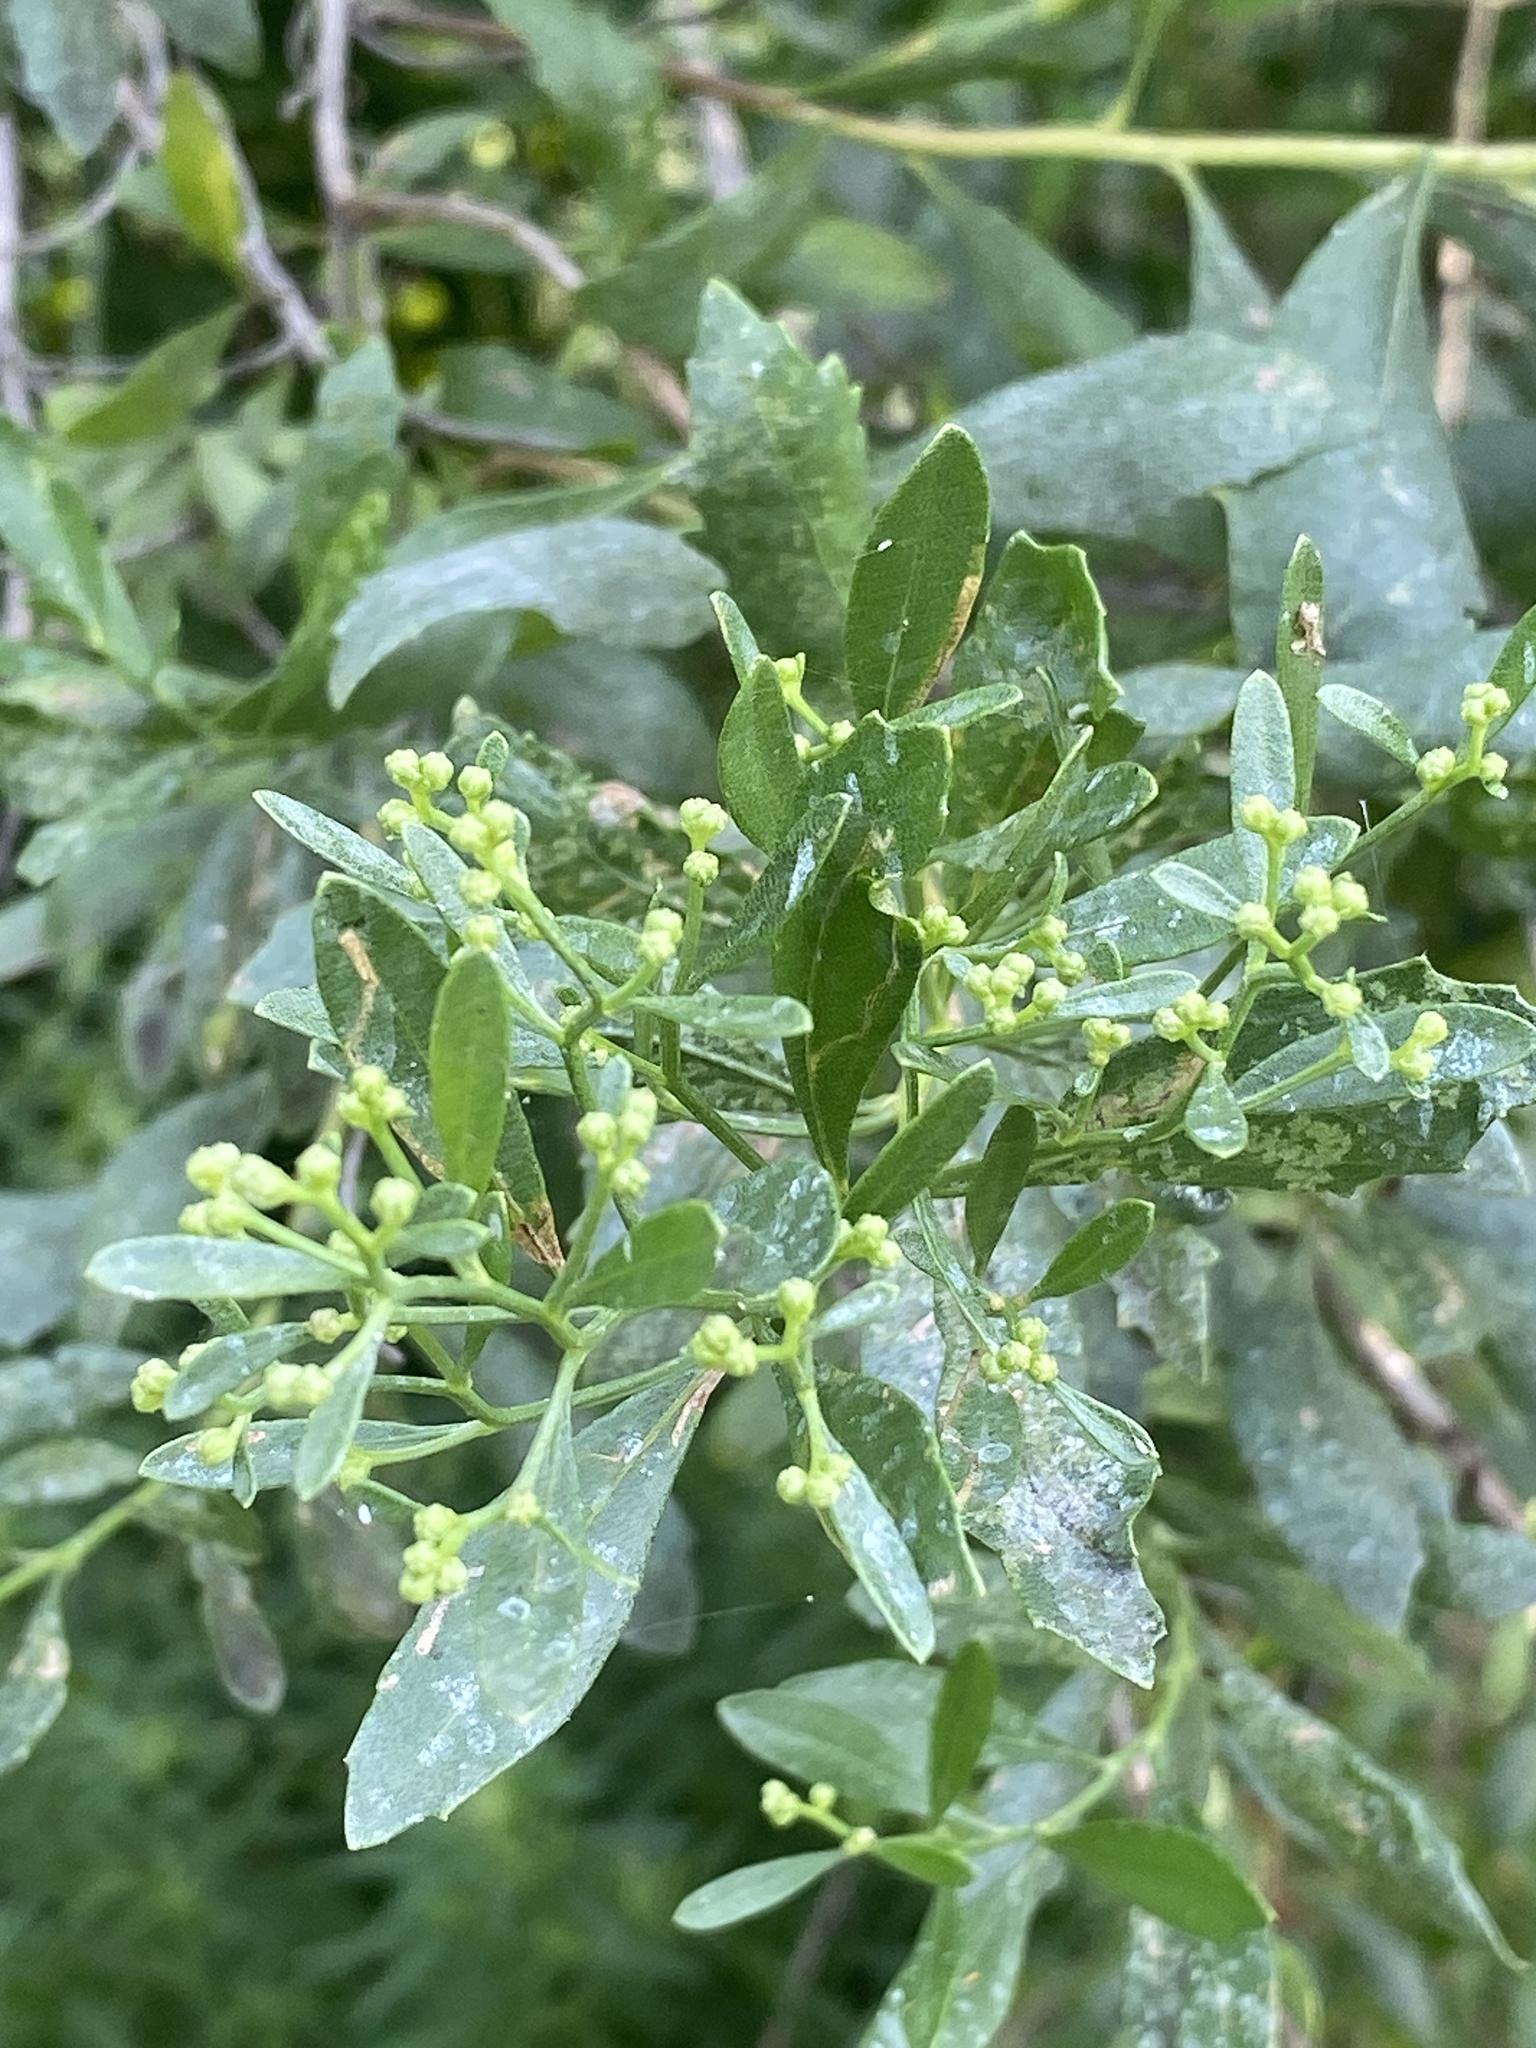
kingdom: Plantae
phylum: Tracheophyta
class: Magnoliopsida
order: Asterales
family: Asteraceae
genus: Baccharis
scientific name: Baccharis halimifolia
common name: Eastern baccharis
